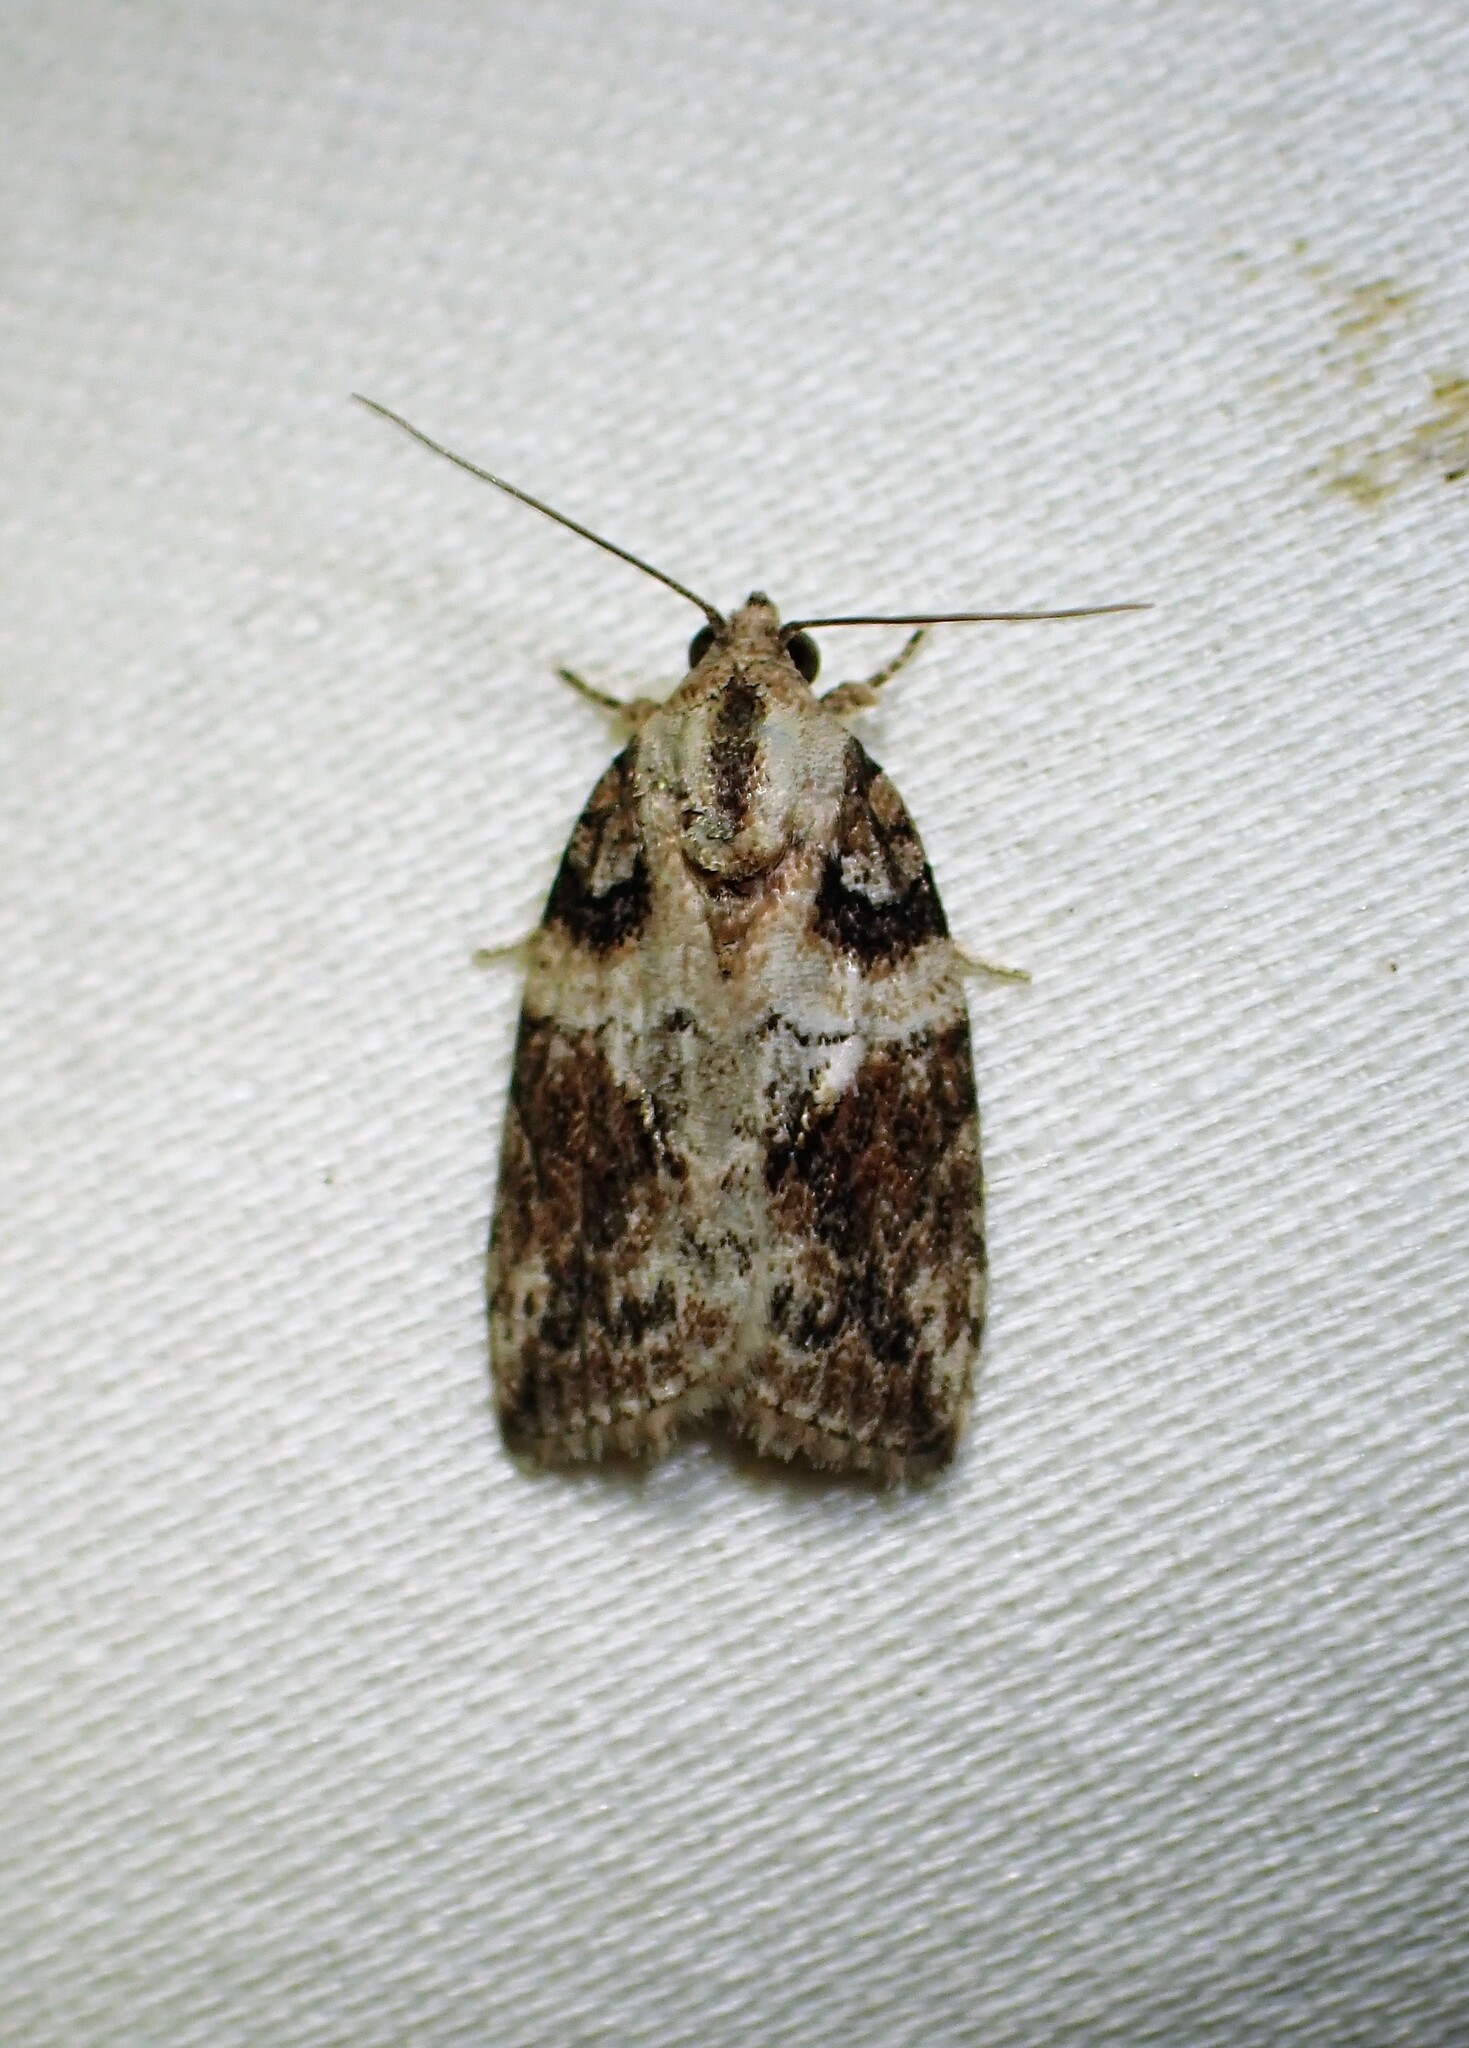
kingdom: Animalia
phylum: Arthropoda
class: Insecta
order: Lepidoptera
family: Nolidae
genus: Garella
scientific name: Garella nilotica
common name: Black-olive caterpillar moth
